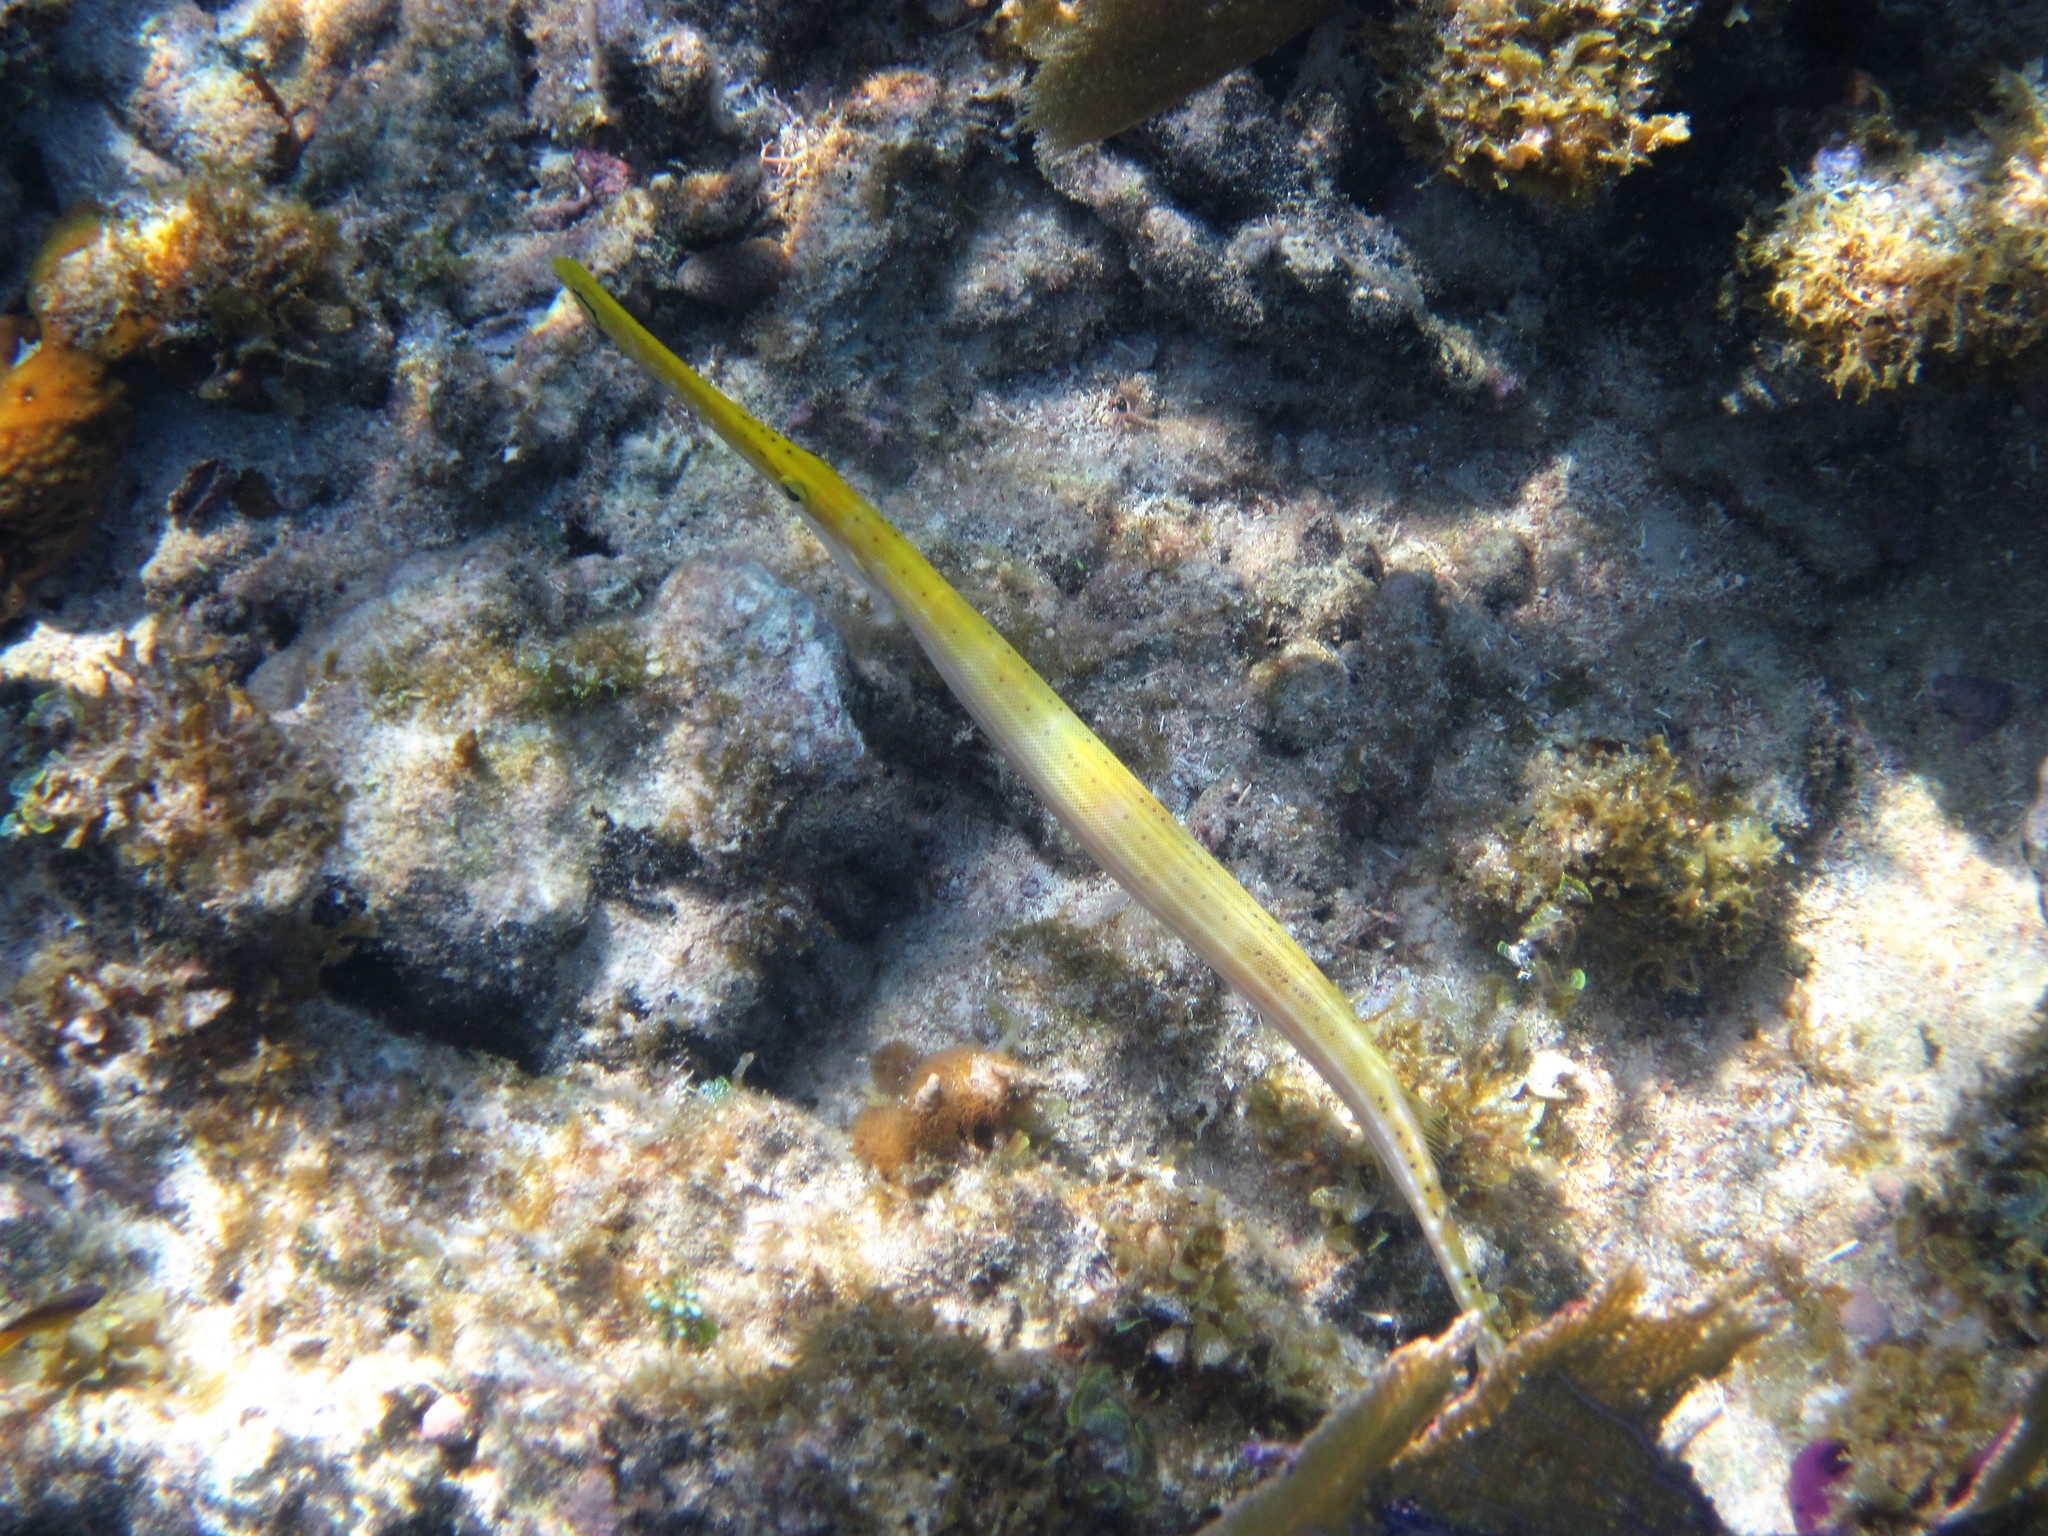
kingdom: Animalia
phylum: Chordata
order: Syngnathiformes
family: Aulostomidae
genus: Aulostomus
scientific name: Aulostomus maculatus
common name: West atlantic trumpetfish
